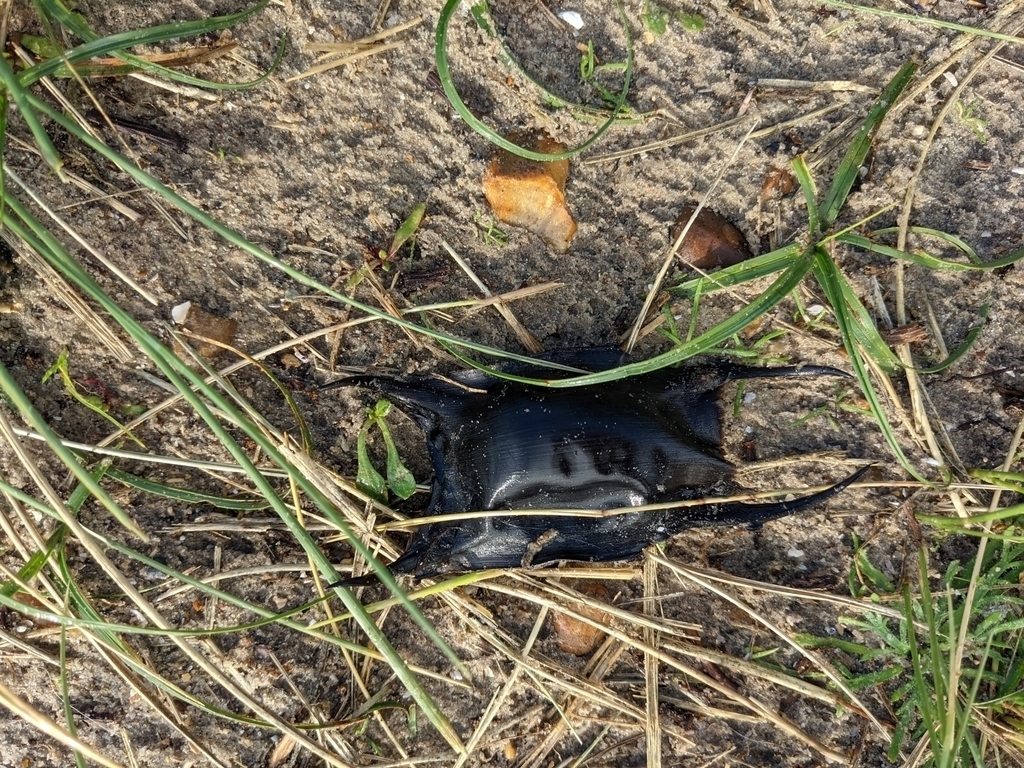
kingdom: Animalia
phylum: Chordata
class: Elasmobranchii
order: Rajiformes
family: Rajidae
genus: Raja
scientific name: Raja clavata
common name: Thornback ray
